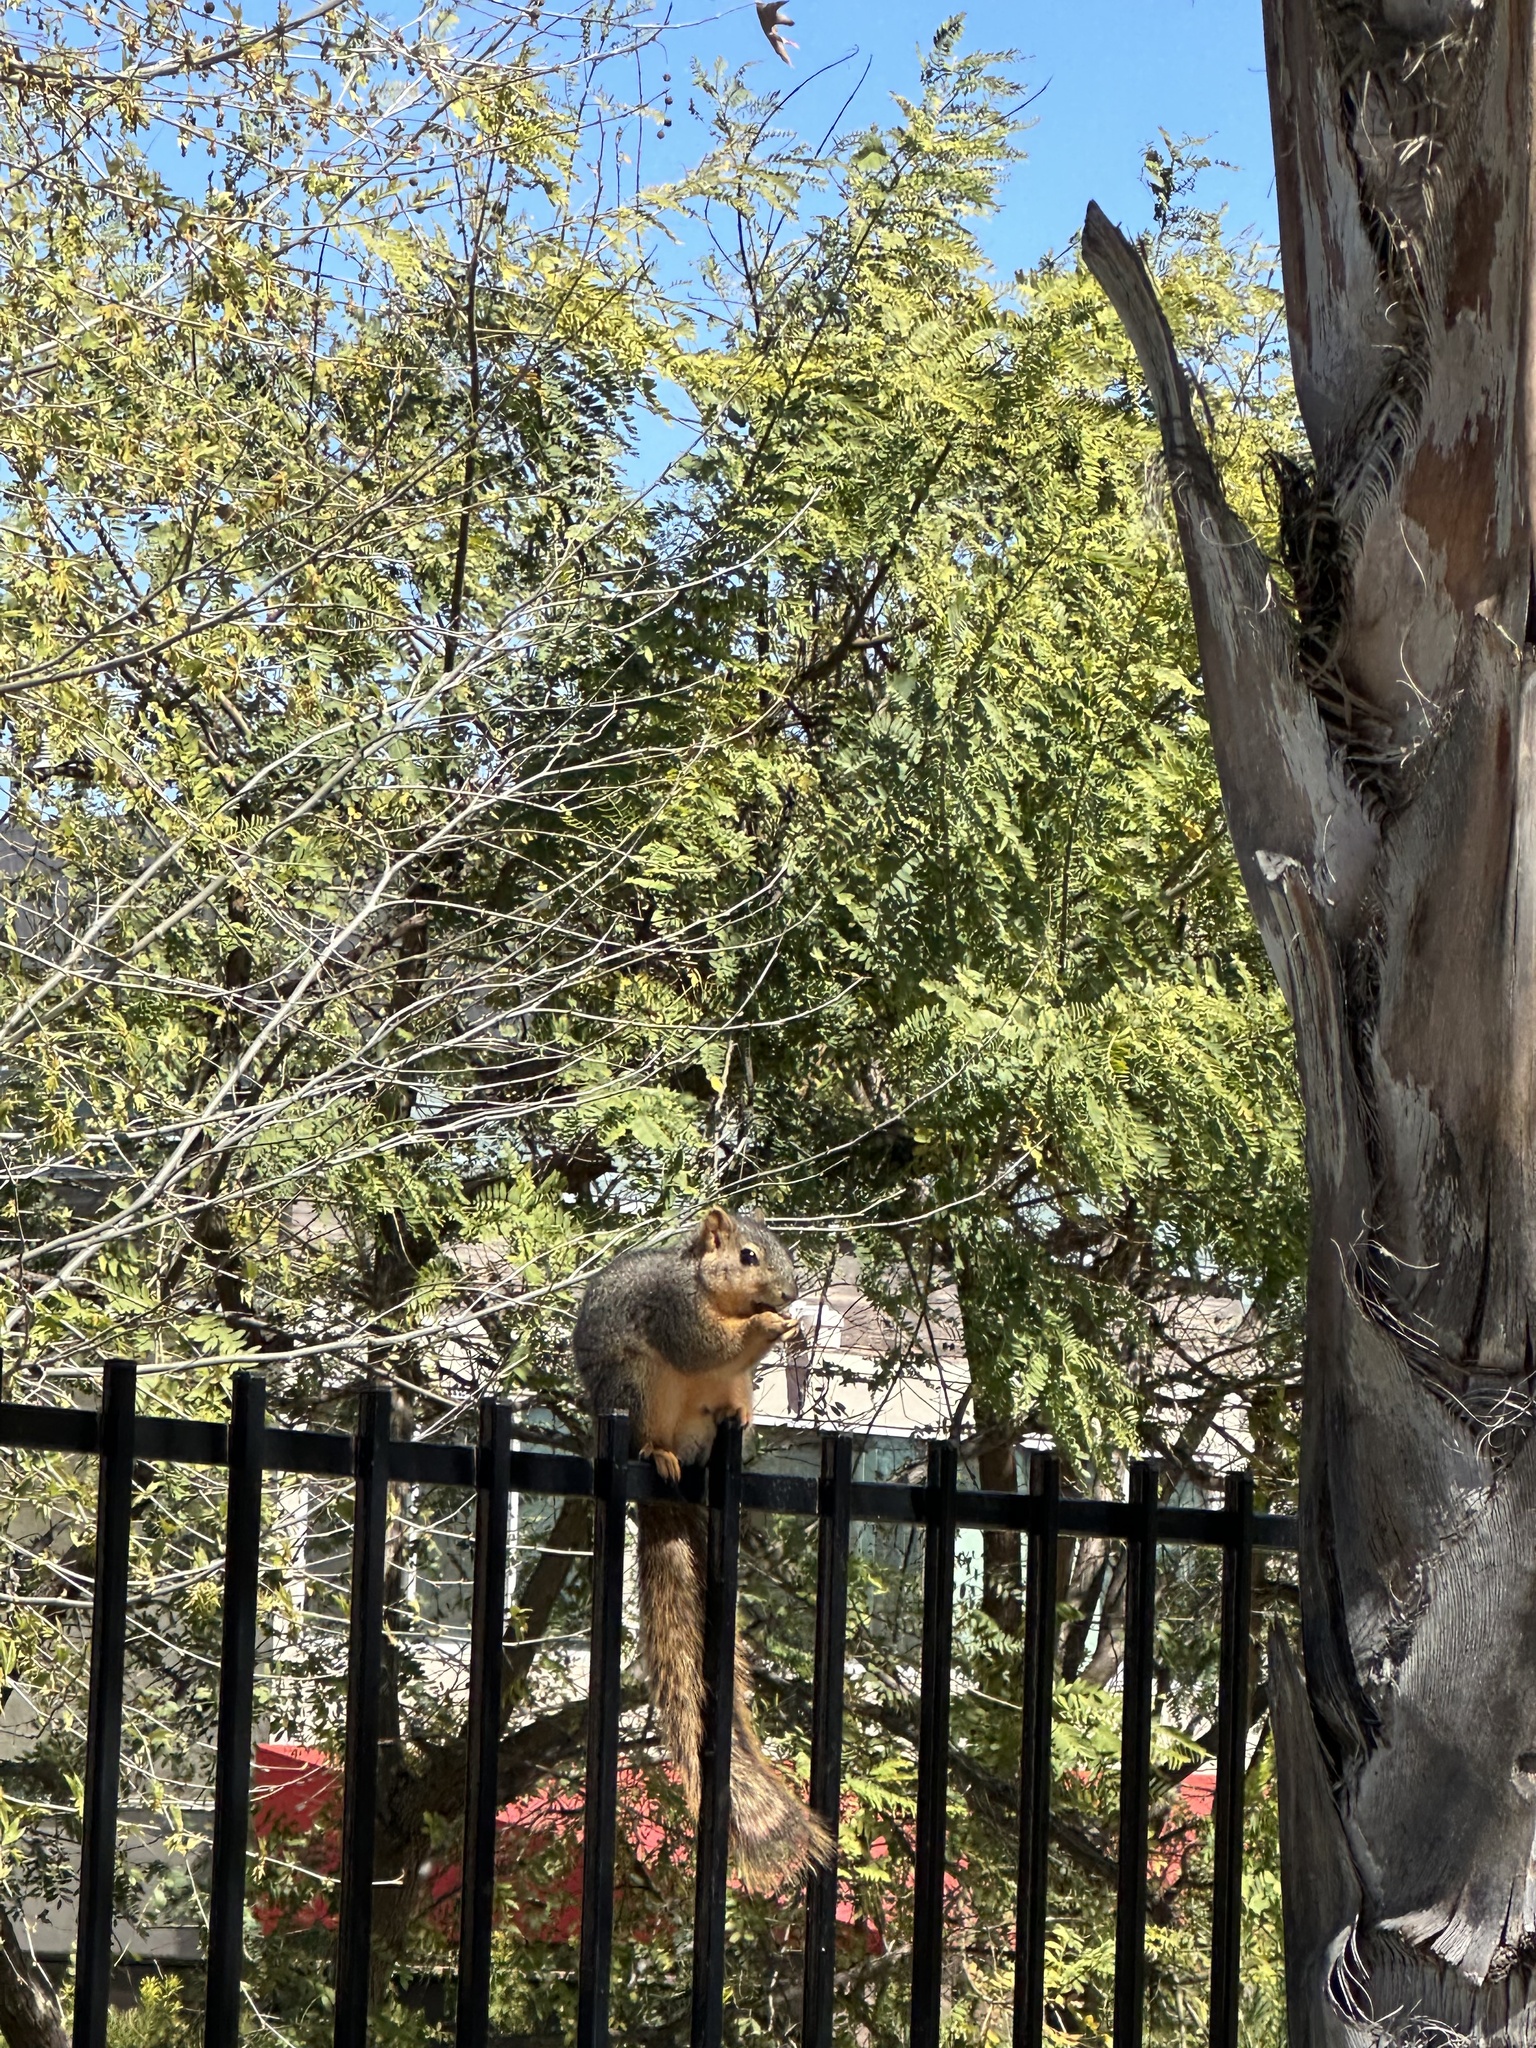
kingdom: Animalia
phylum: Chordata
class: Mammalia
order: Rodentia
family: Sciuridae
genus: Sciurus
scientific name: Sciurus niger
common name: Fox squirrel
